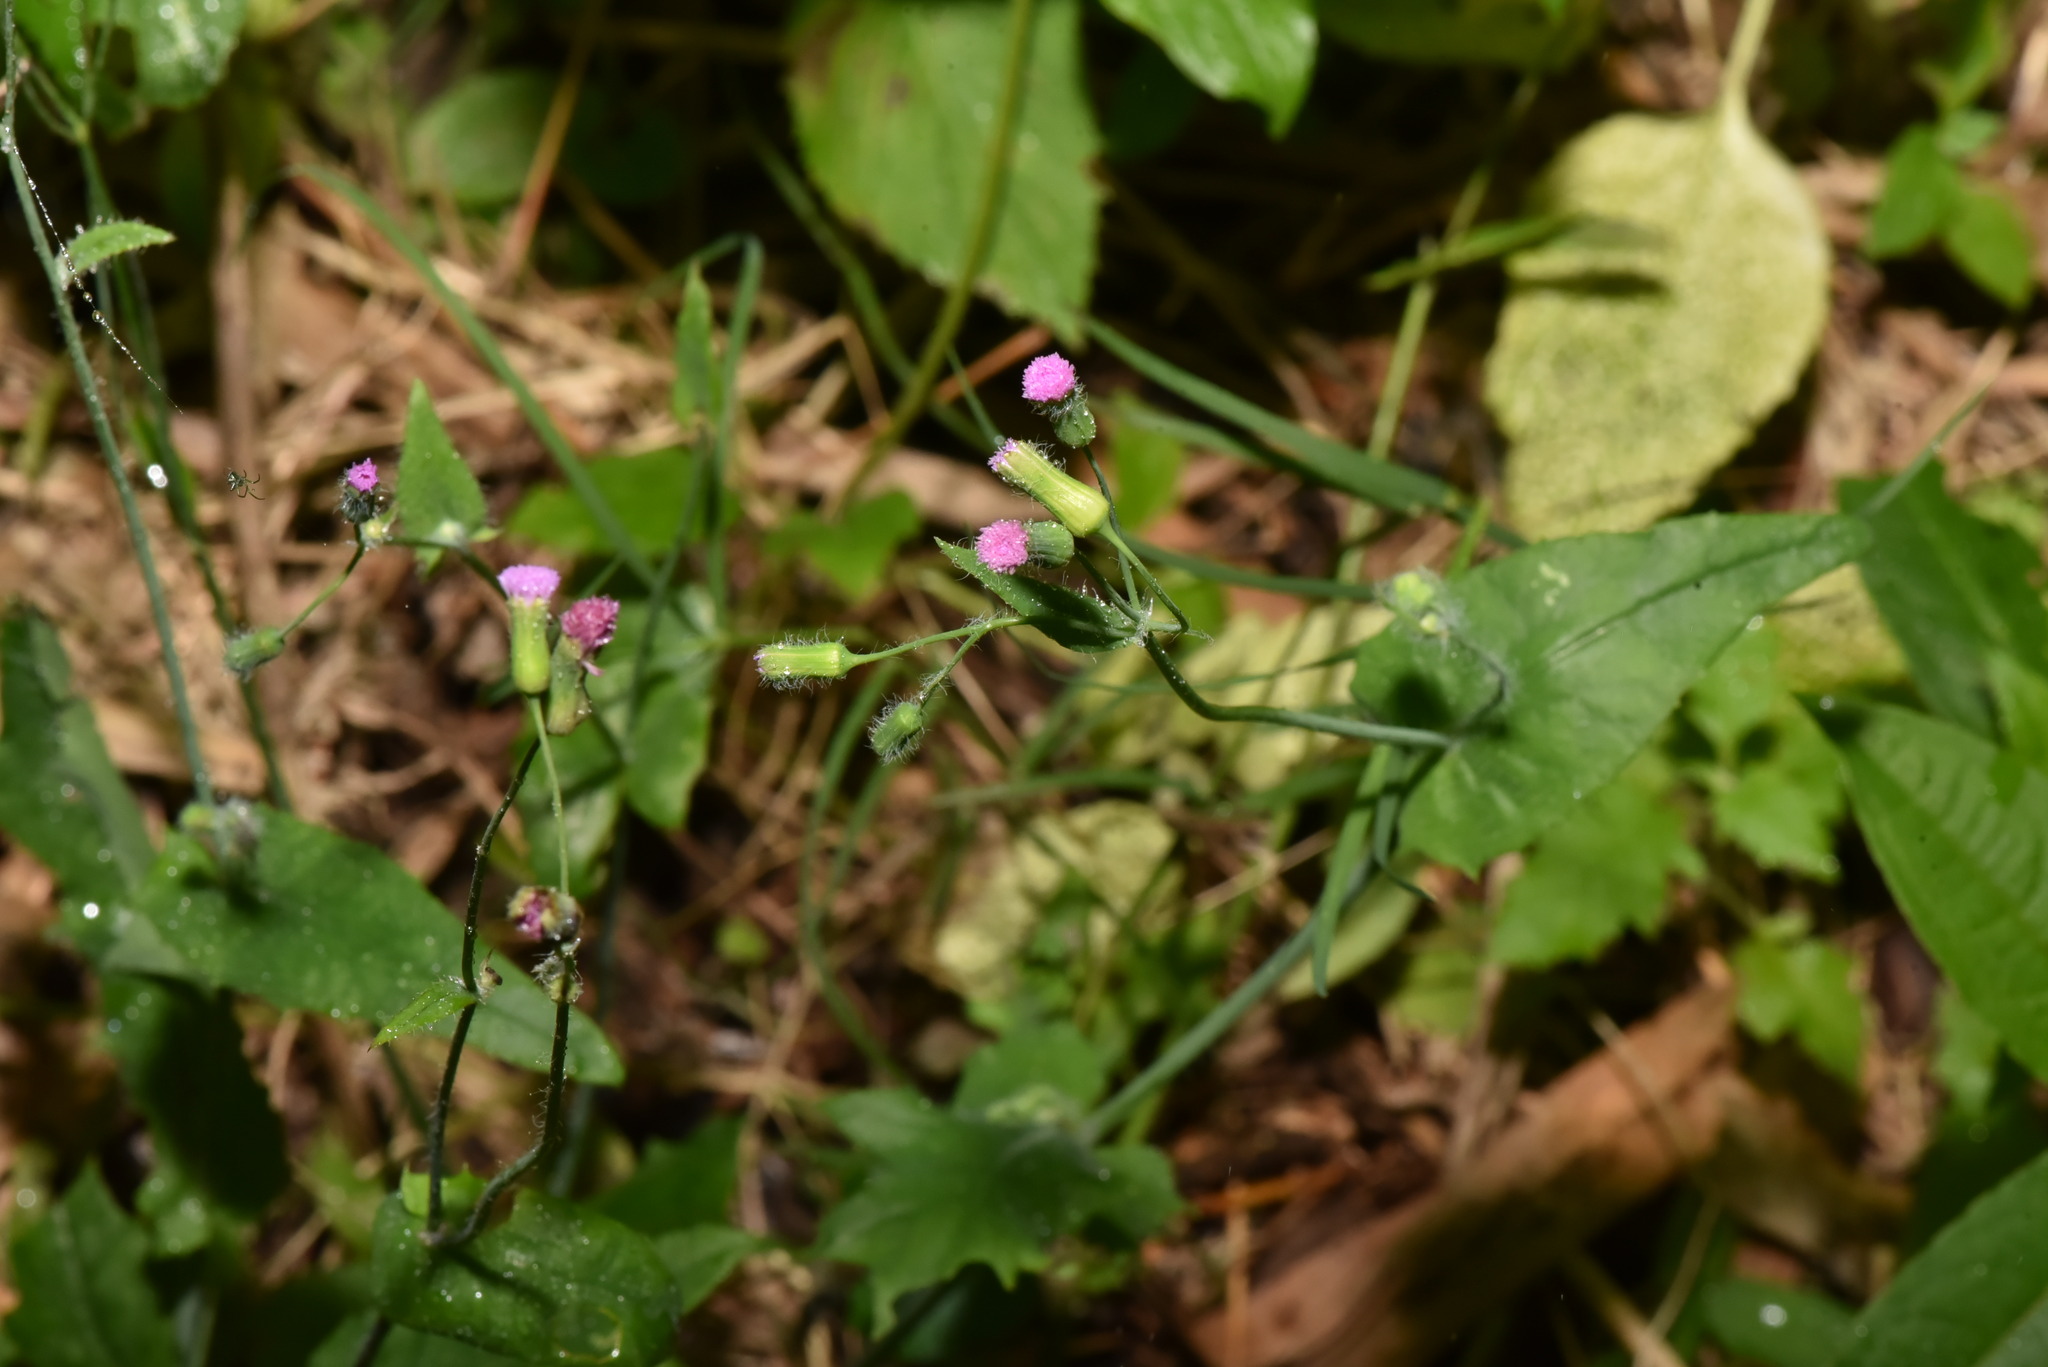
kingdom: Plantae
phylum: Tracheophyta
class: Magnoliopsida
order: Asterales
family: Asteraceae
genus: Emilia
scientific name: Emilia javanica
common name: Tassel-flower
